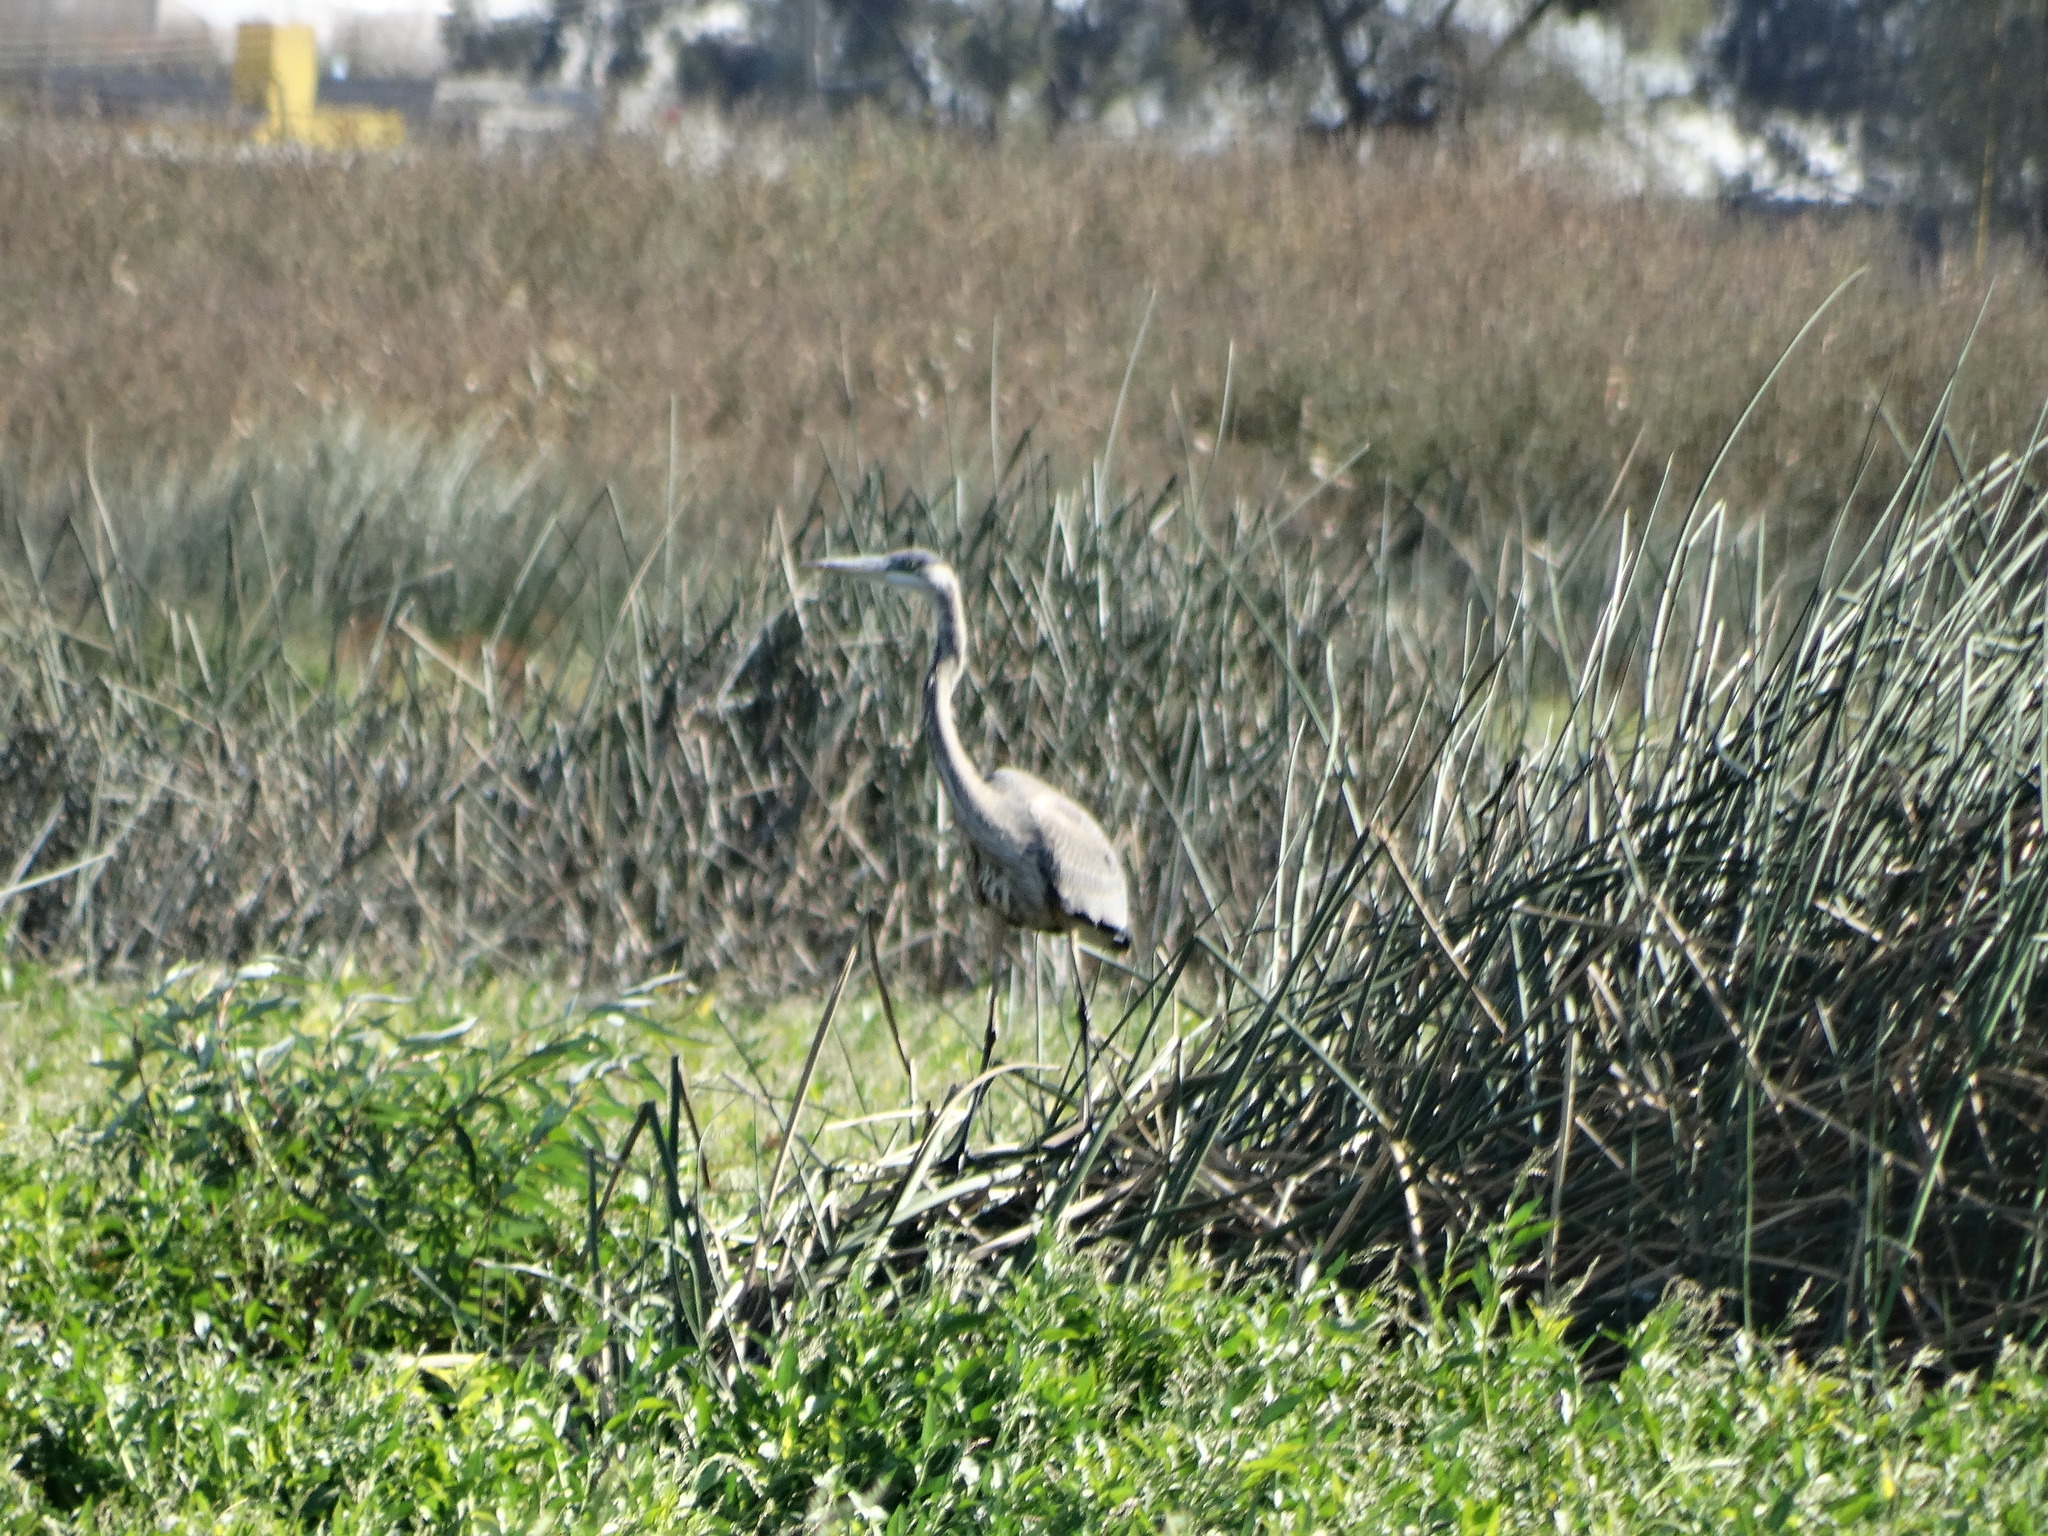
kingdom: Animalia
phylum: Chordata
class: Aves
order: Pelecaniformes
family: Ardeidae
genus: Ardea
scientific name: Ardea herodias
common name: Great blue heron
